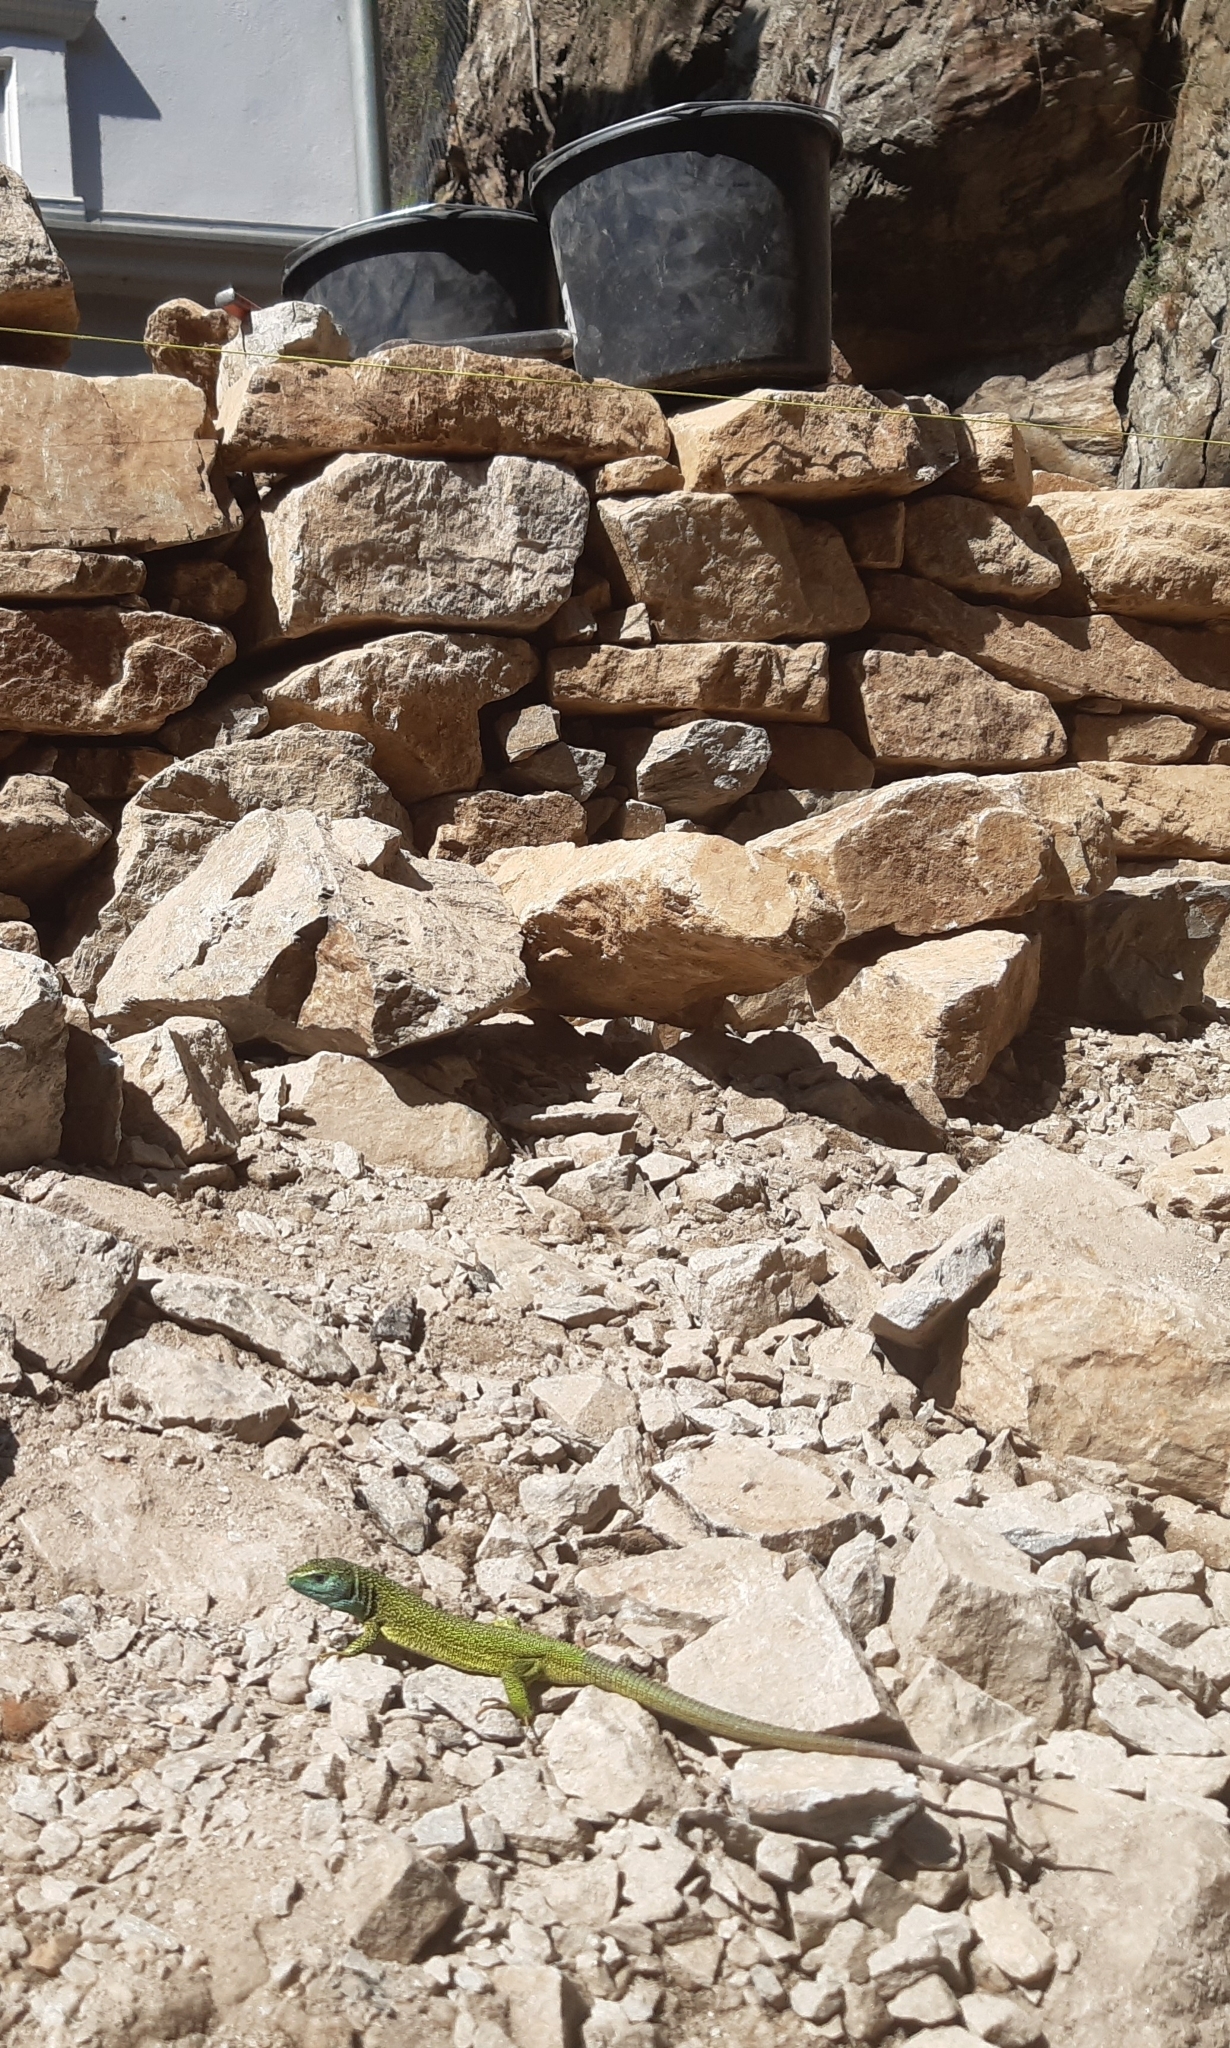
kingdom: Animalia
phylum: Chordata
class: Squamata
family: Lacertidae
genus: Lacerta
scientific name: Lacerta viridis
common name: European green lizard
